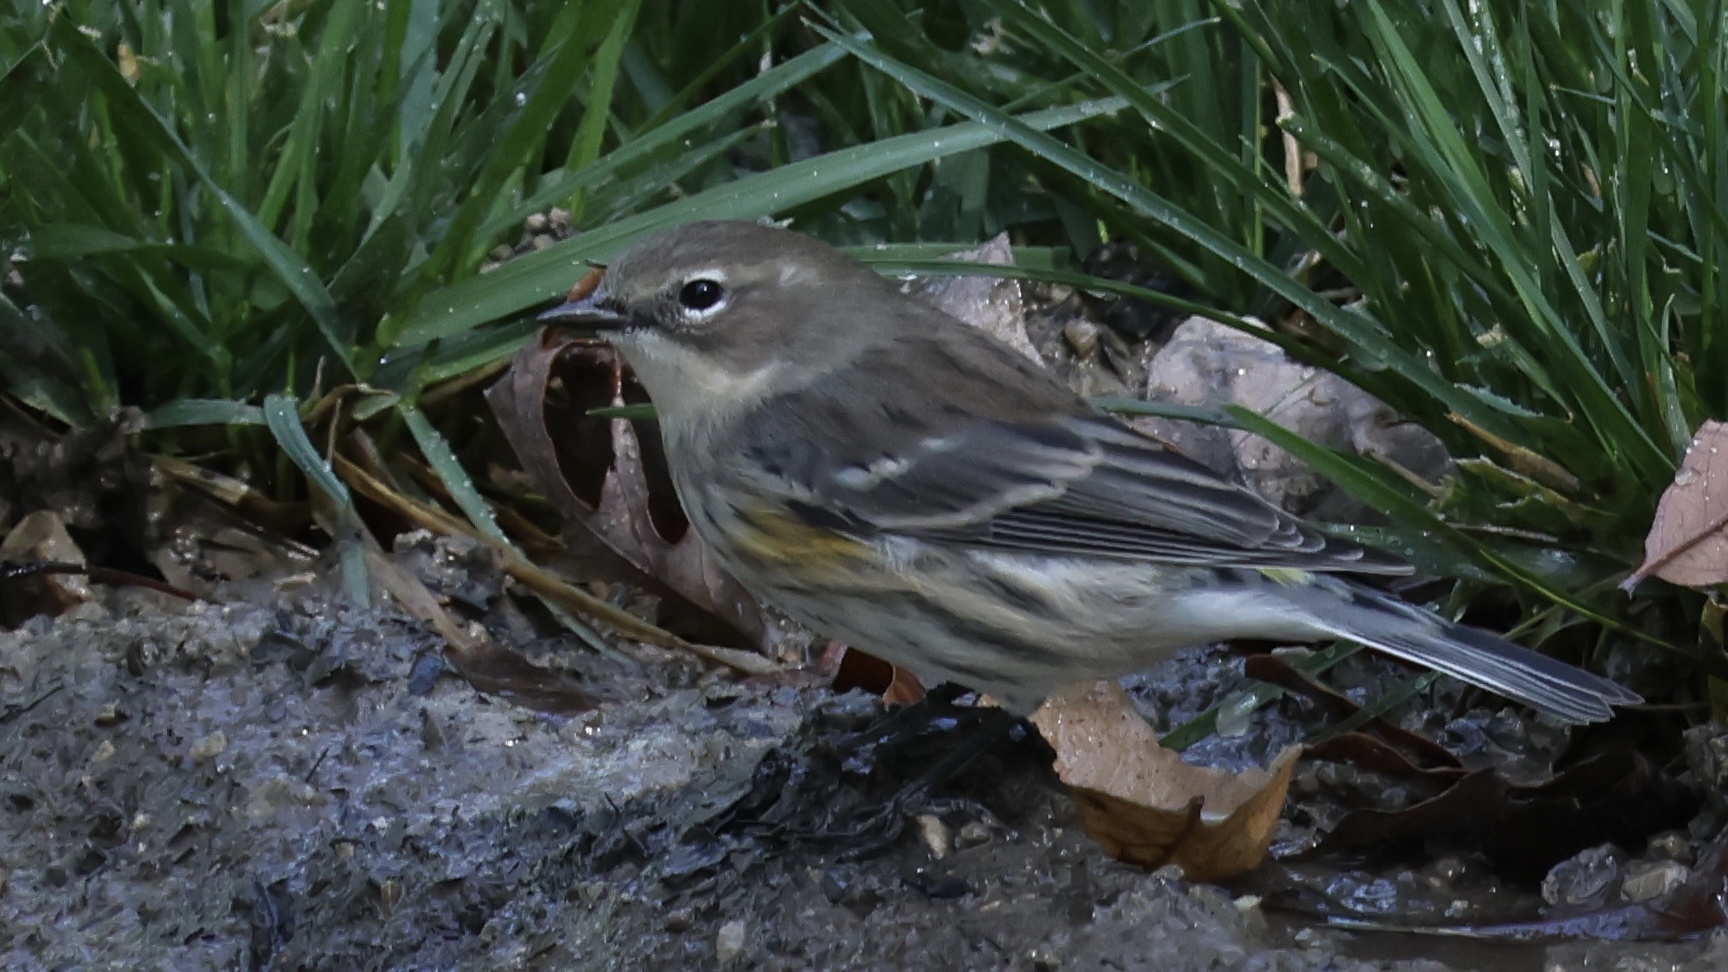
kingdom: Animalia
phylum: Chordata
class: Aves
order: Passeriformes
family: Parulidae
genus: Setophaga
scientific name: Setophaga palmarum
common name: Palm warbler
